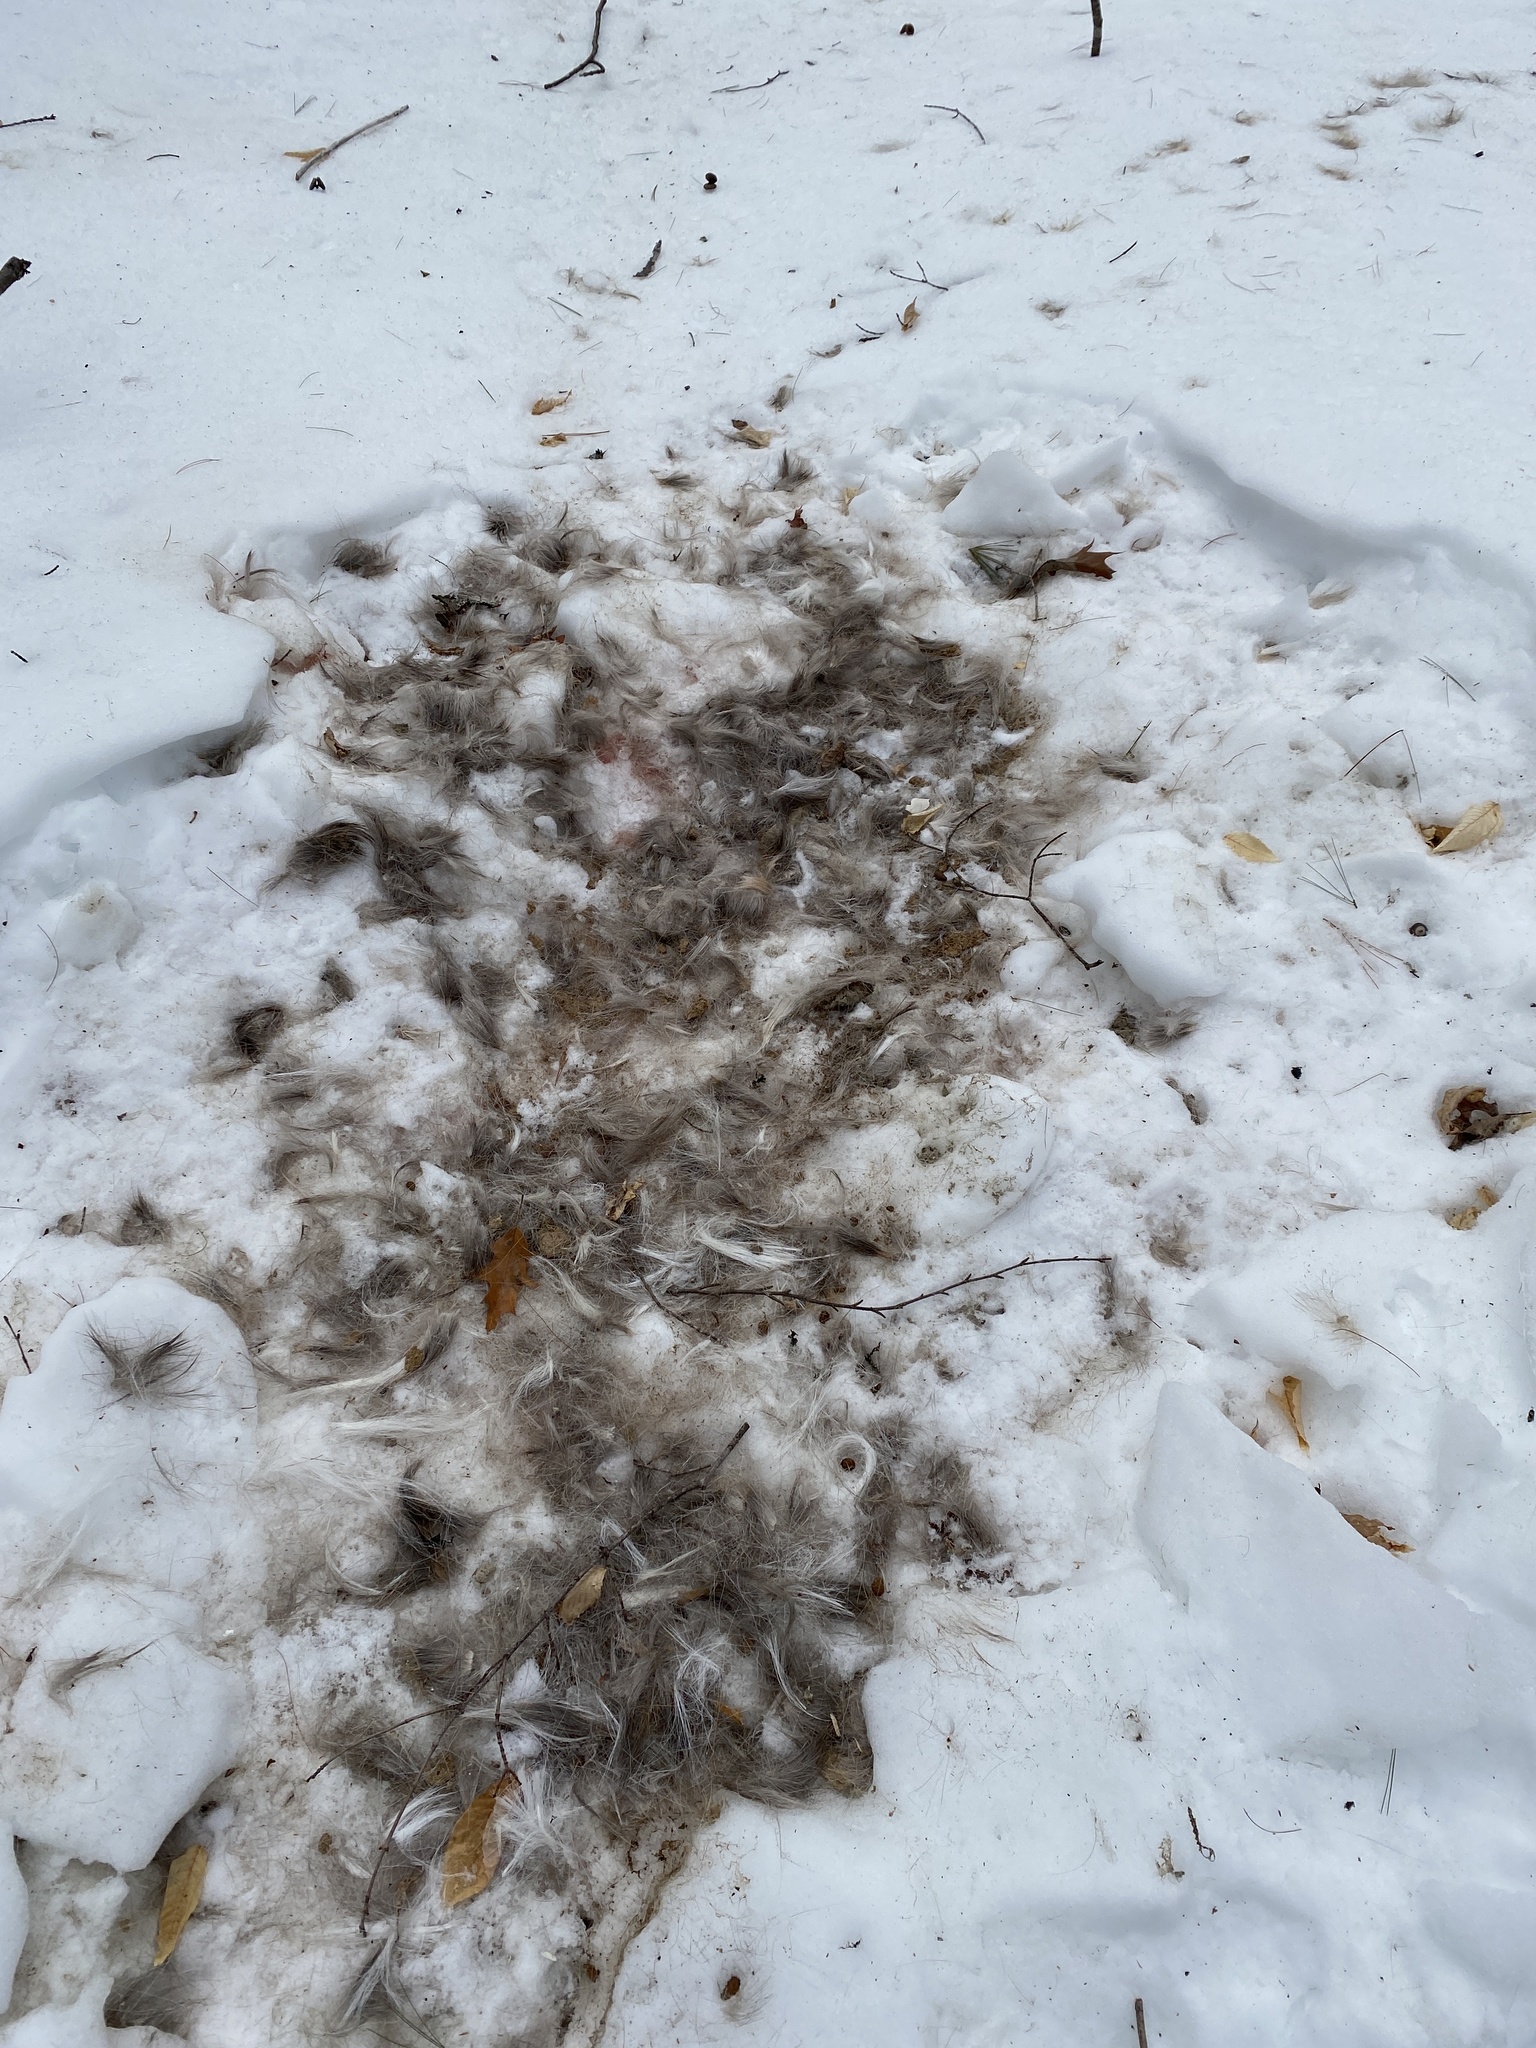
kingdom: Animalia
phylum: Chordata
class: Mammalia
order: Artiodactyla
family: Cervidae
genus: Odocoileus
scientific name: Odocoileus virginianus
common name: White-tailed deer
